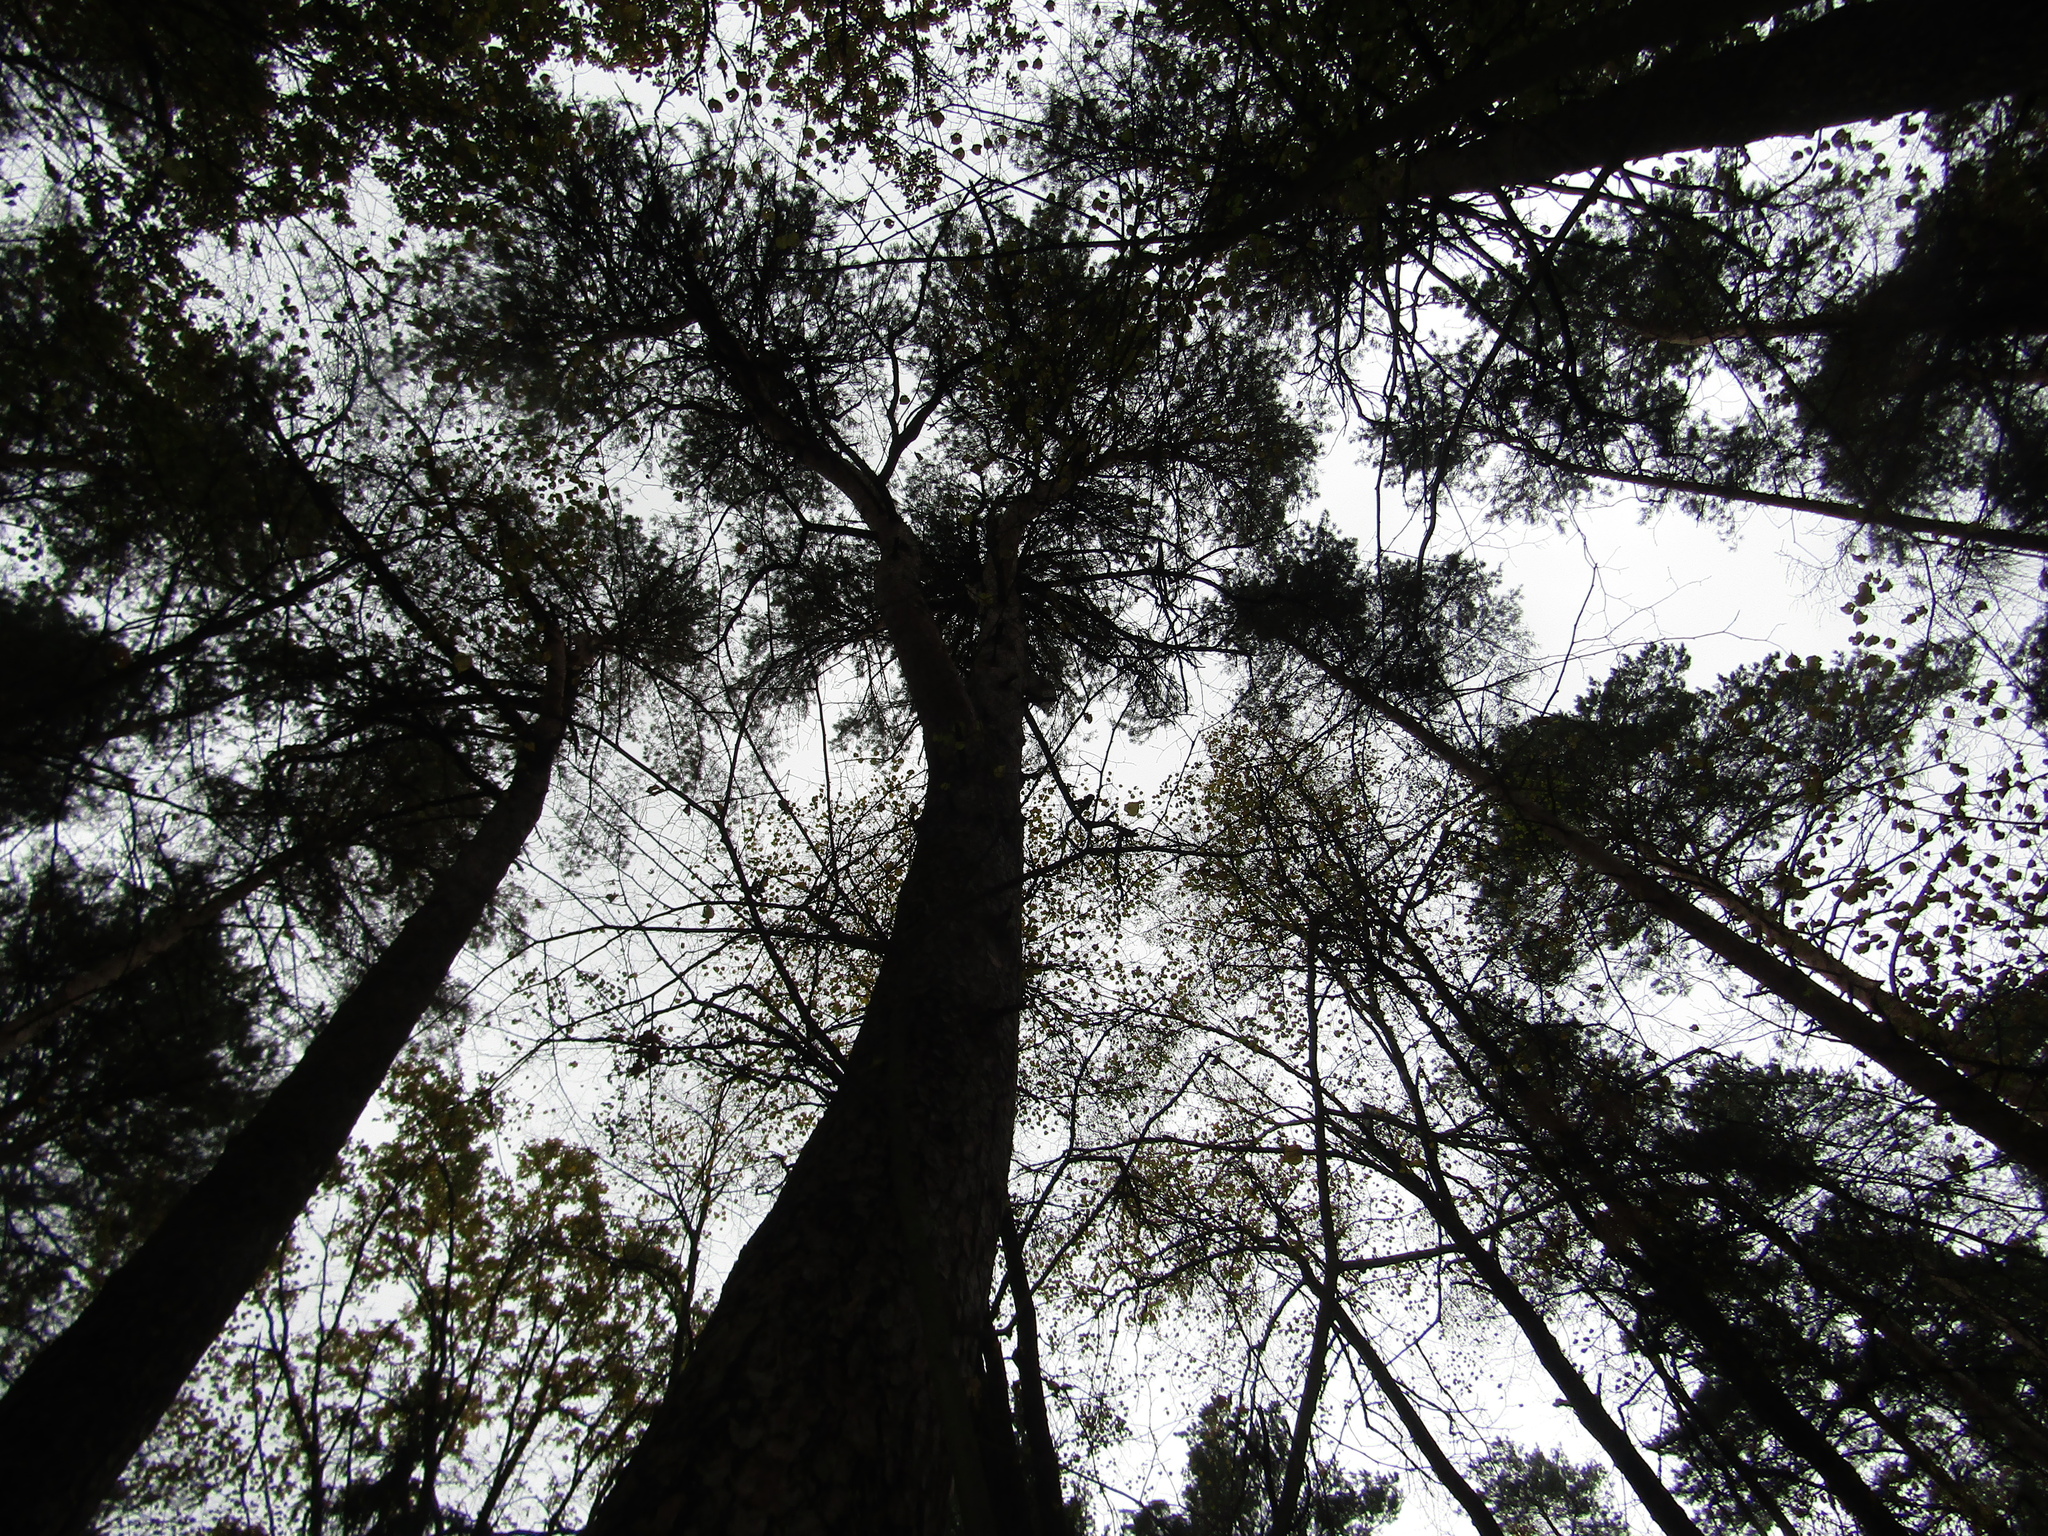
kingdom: Plantae
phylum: Tracheophyta
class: Pinopsida
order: Pinales
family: Pinaceae
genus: Pinus
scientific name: Pinus sylvestris
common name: Scots pine
